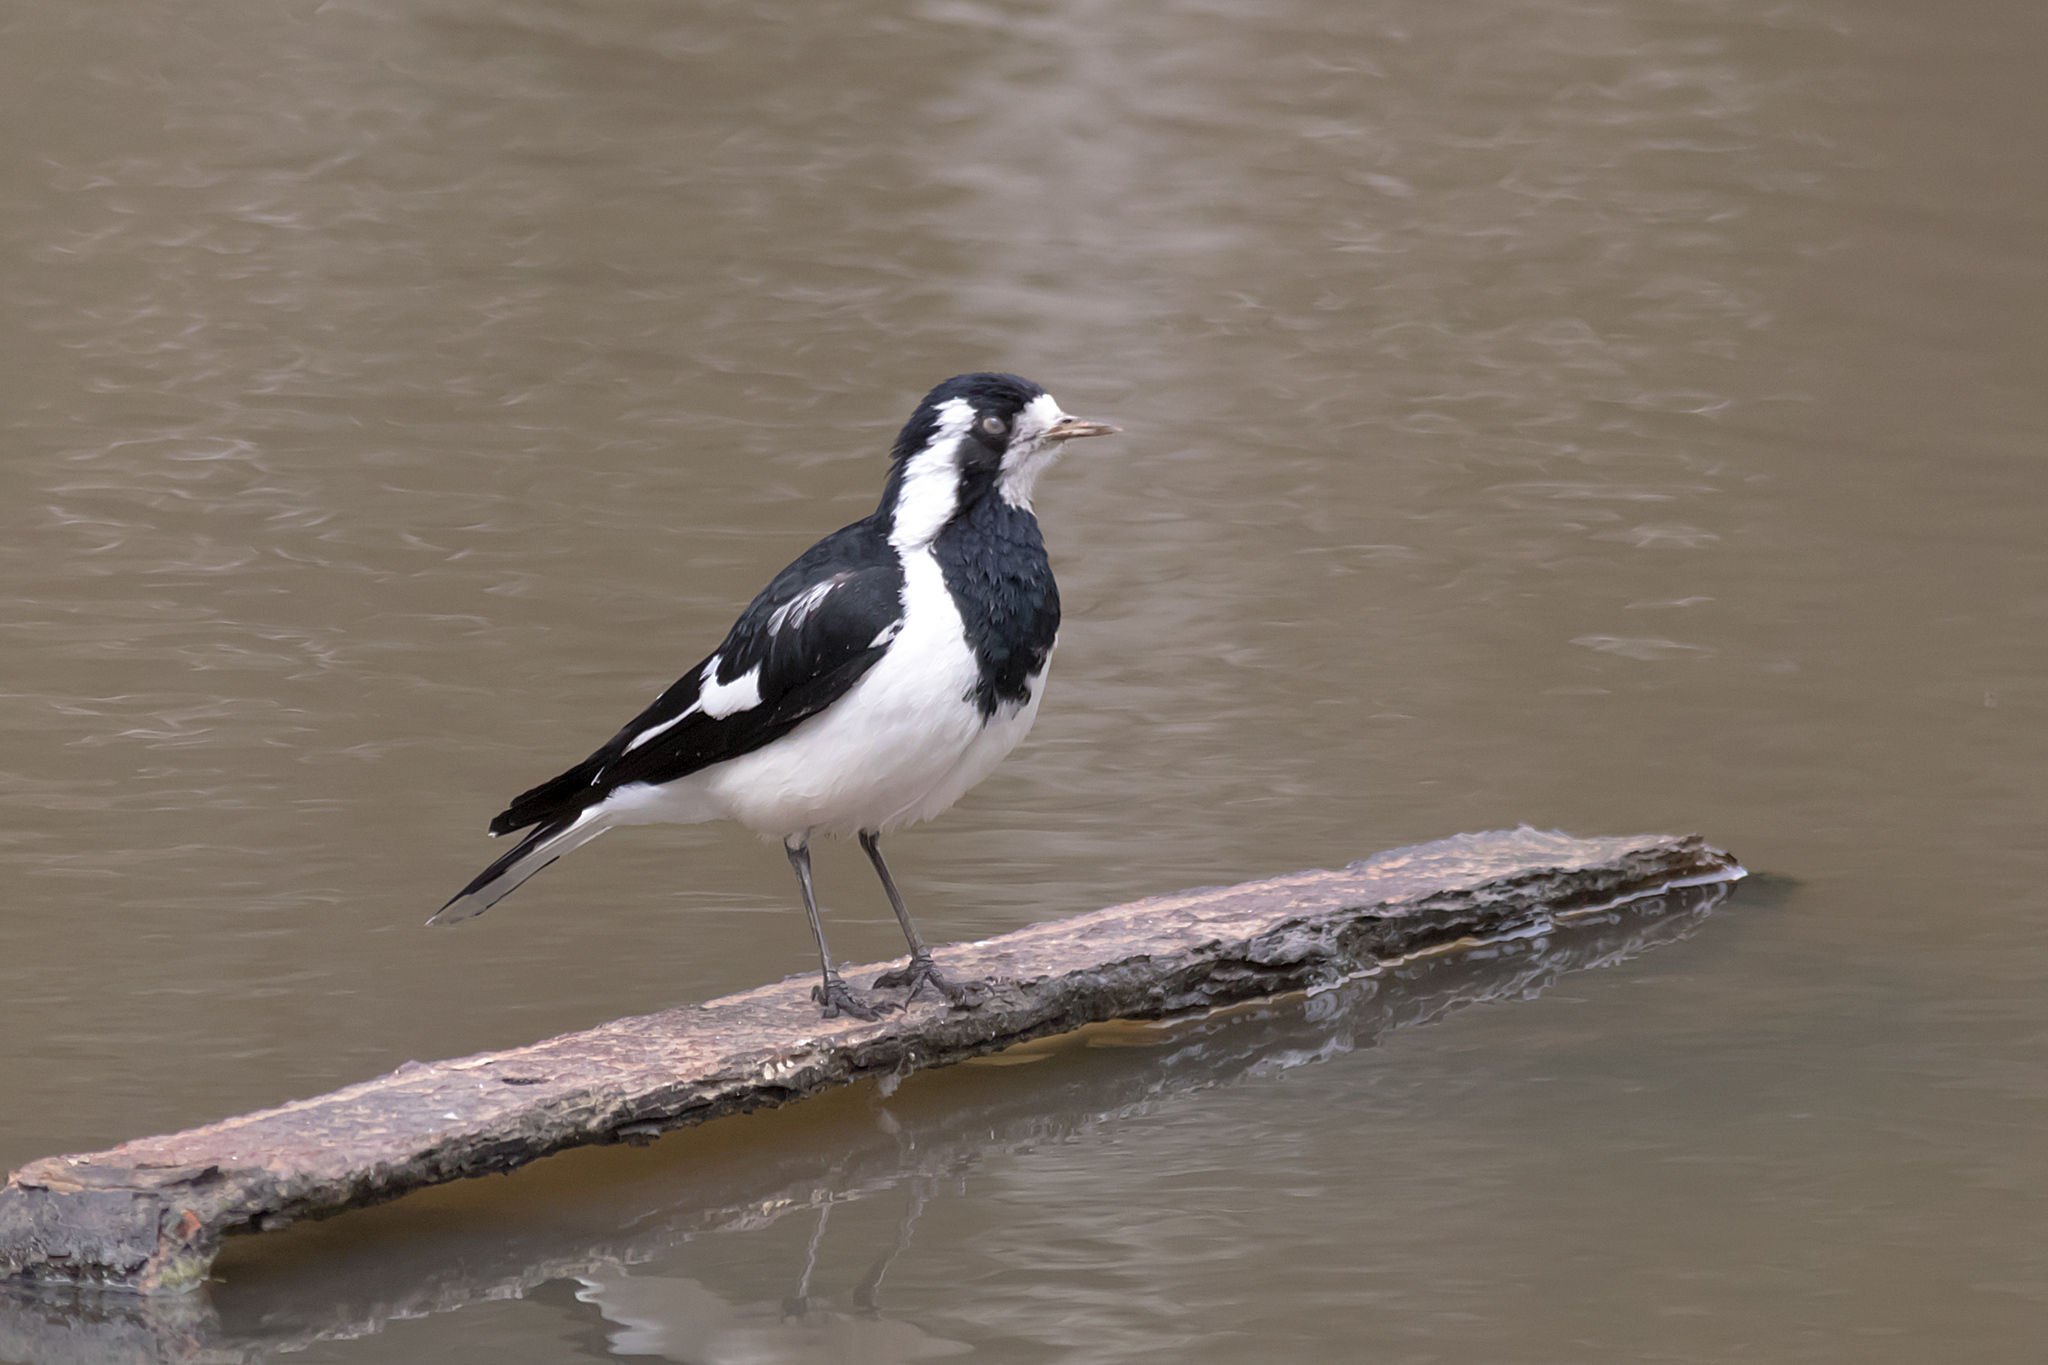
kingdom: Animalia
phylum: Chordata
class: Aves
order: Passeriformes
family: Monarchidae
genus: Grallina
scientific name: Grallina cyanoleuca
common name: Magpie-lark
